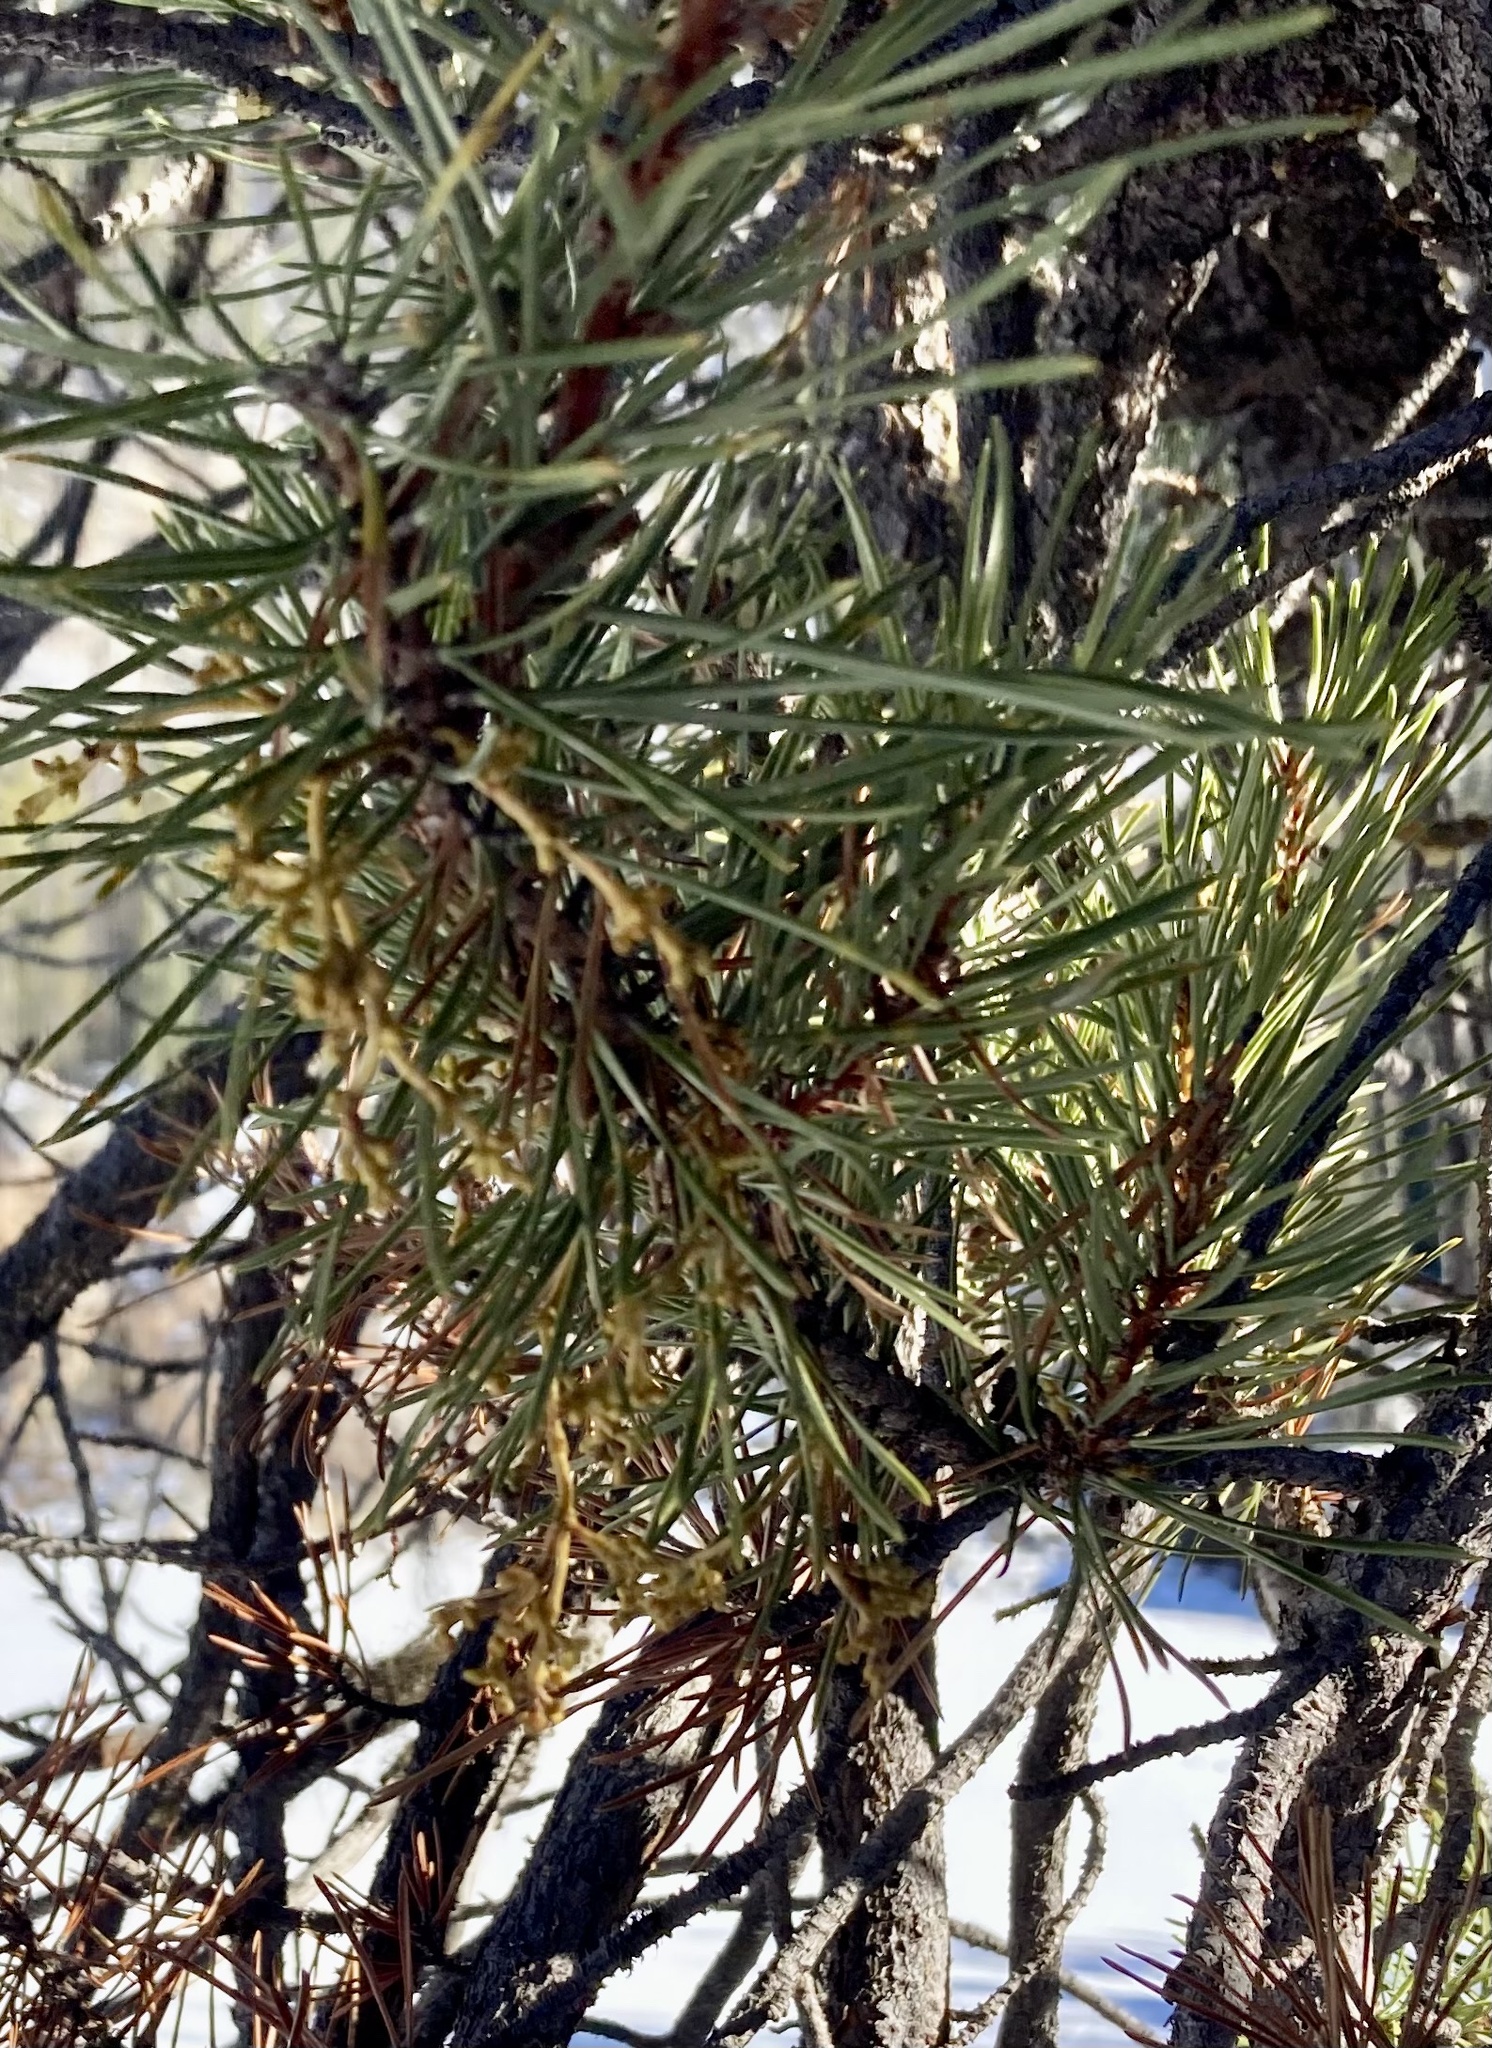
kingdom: Plantae
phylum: Tracheophyta
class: Magnoliopsida
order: Santalales
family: Viscaceae
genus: Arceuthobium
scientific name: Arceuthobium americanum
